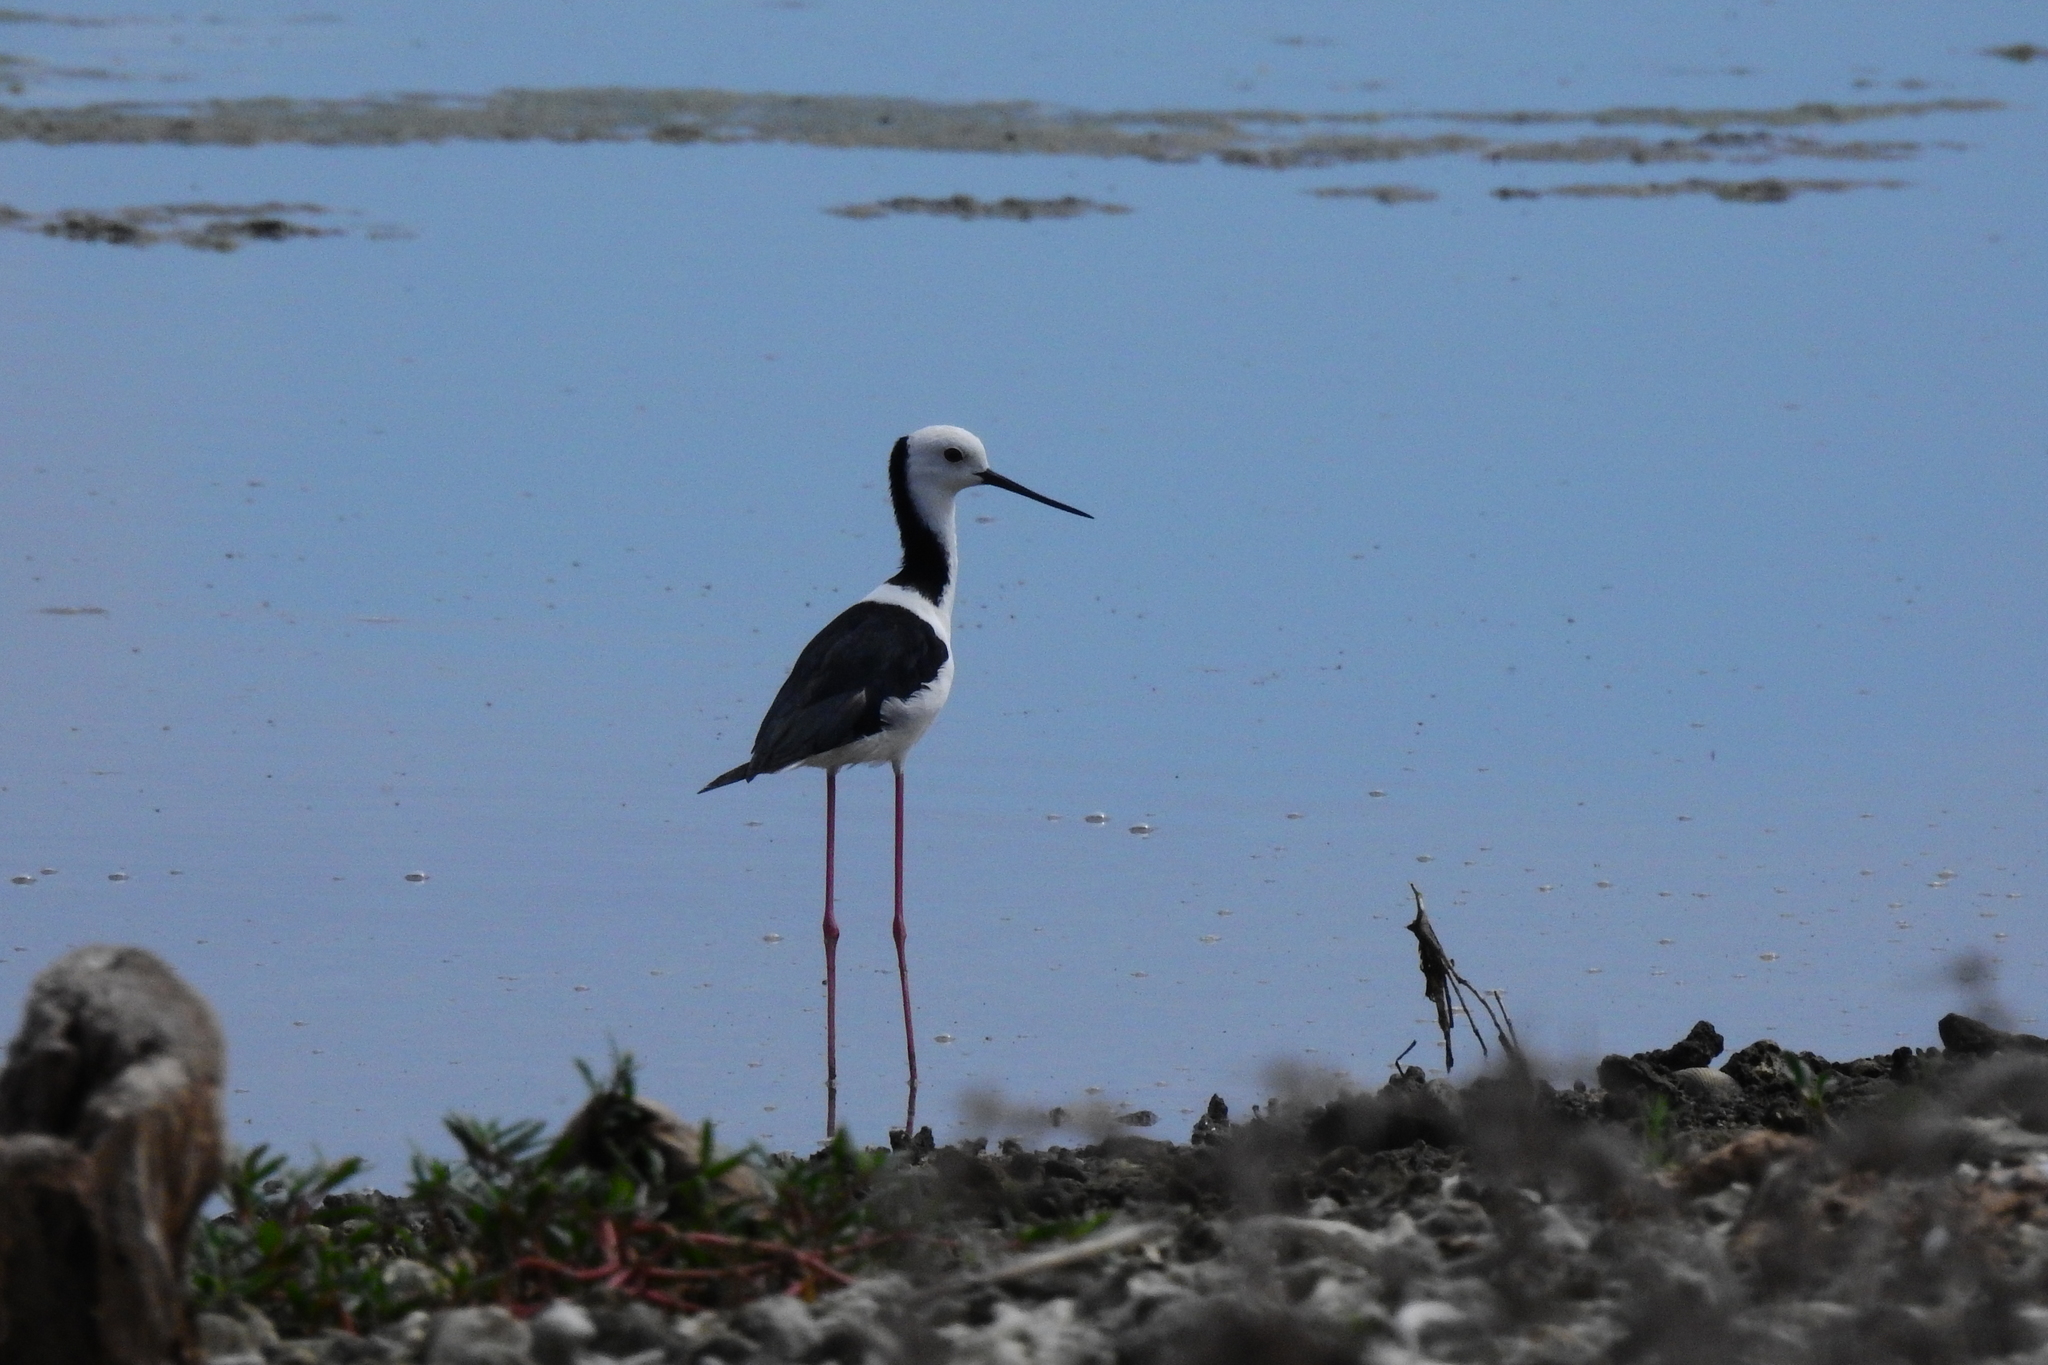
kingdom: Animalia
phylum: Chordata
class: Aves
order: Charadriiformes
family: Recurvirostridae
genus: Himantopus
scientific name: Himantopus leucocephalus
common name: White-headed stilt
